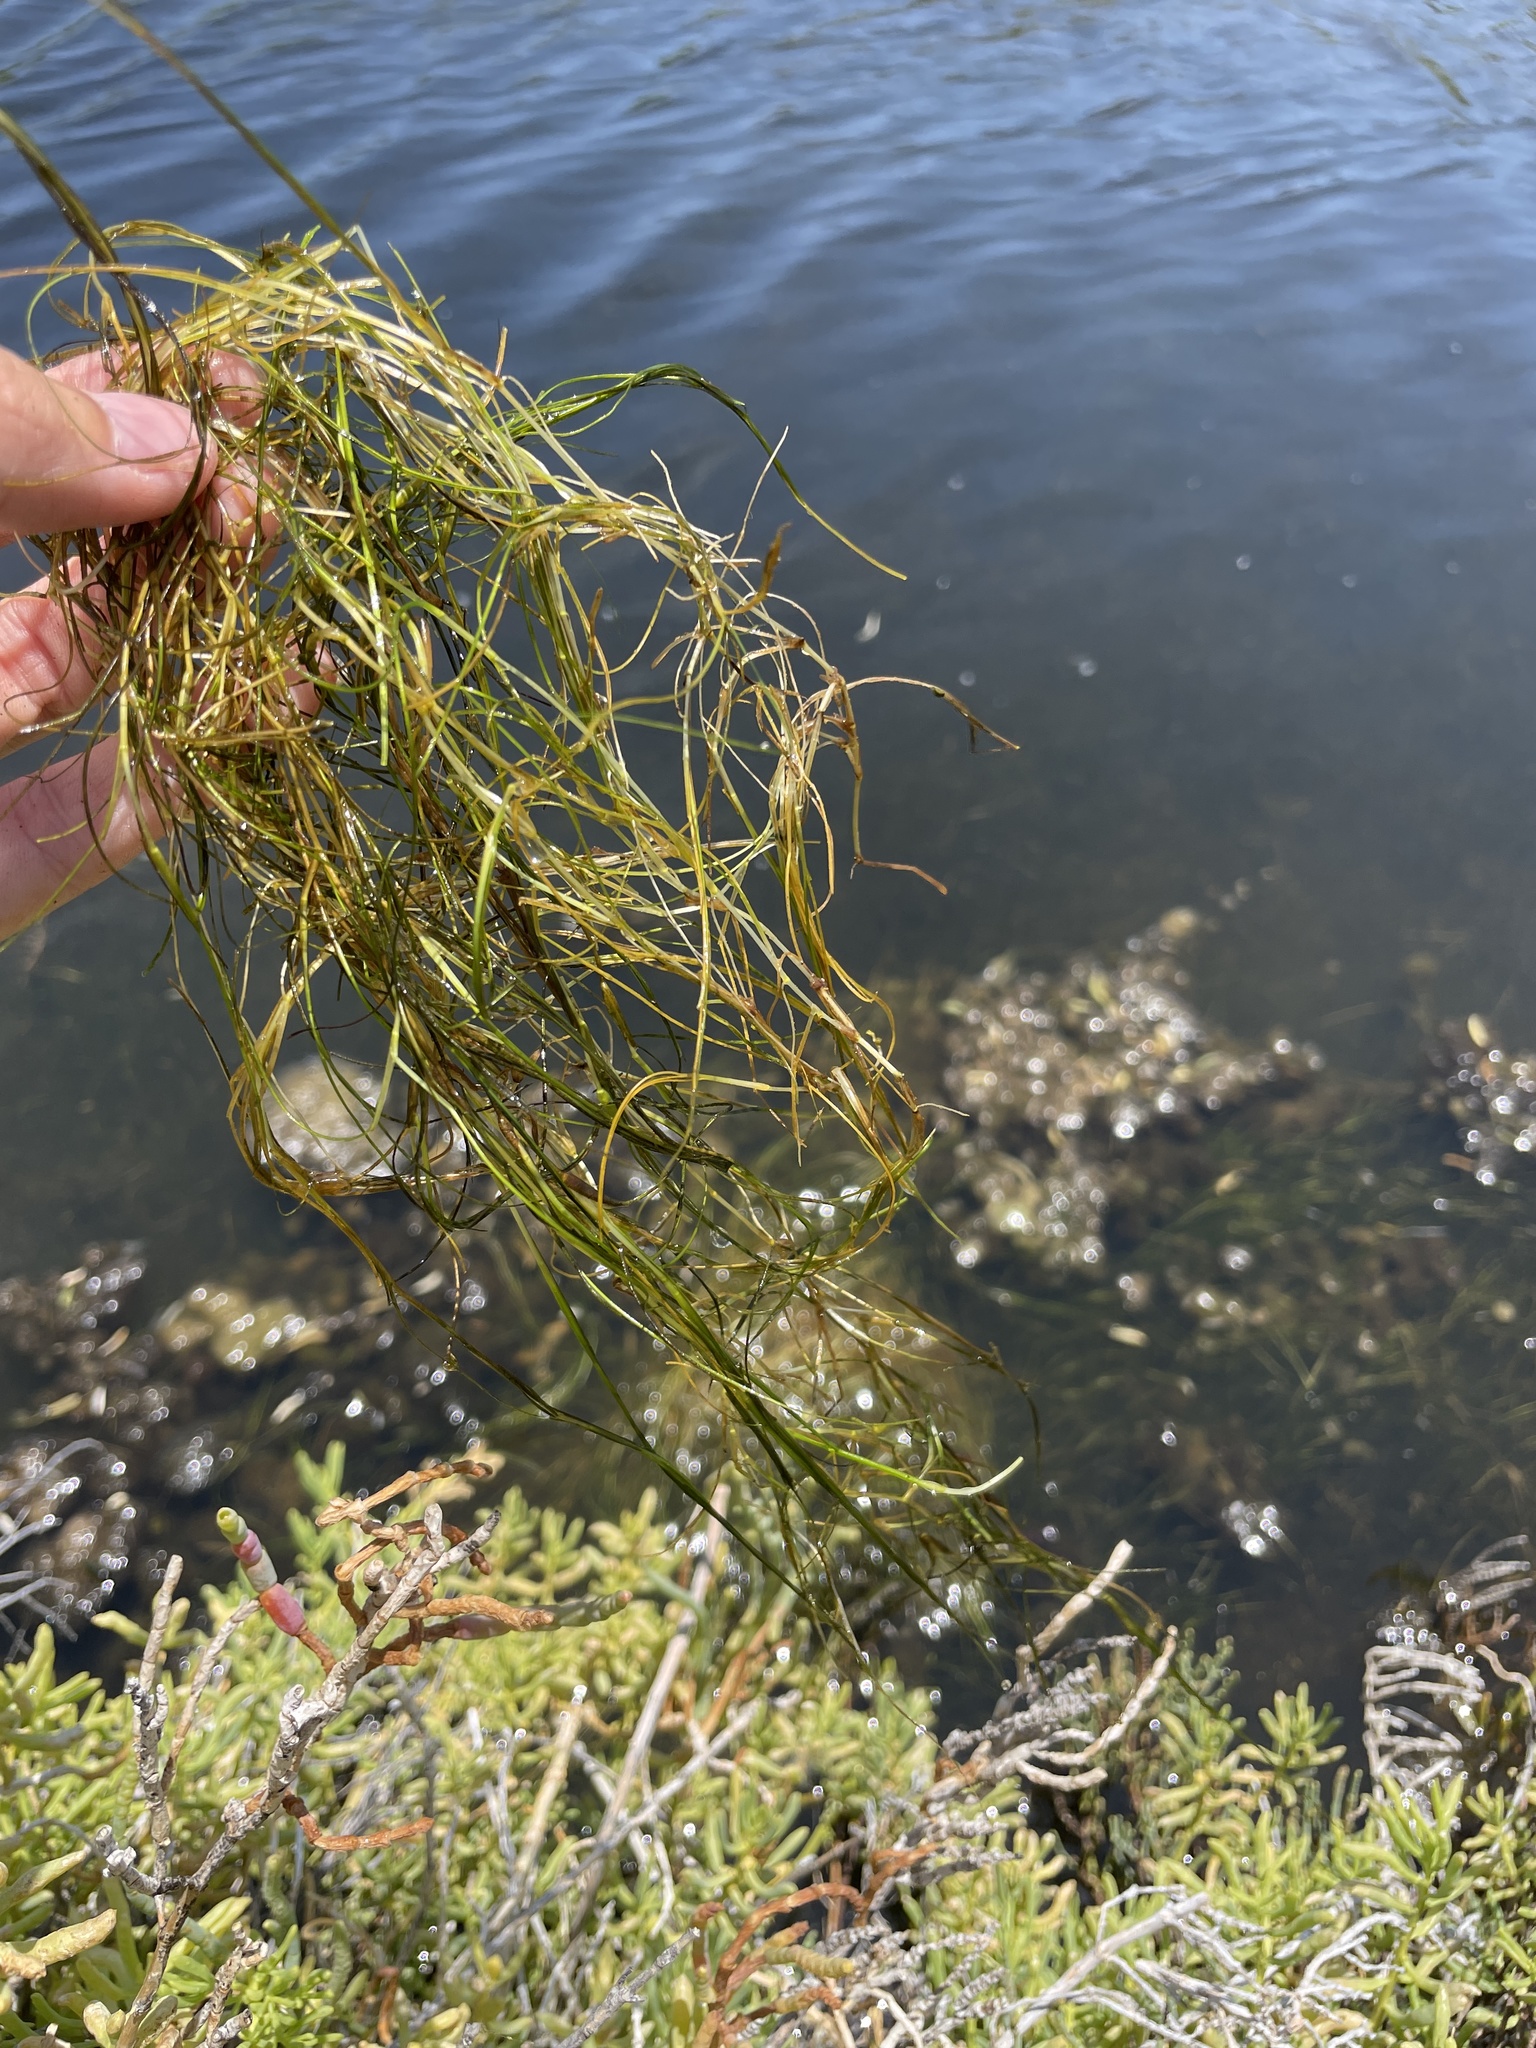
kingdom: Plantae
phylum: Tracheophyta
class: Liliopsida
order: Alismatales
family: Ruppiaceae
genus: Ruppia
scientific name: Ruppia maritima
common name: Beaked tasselweed
